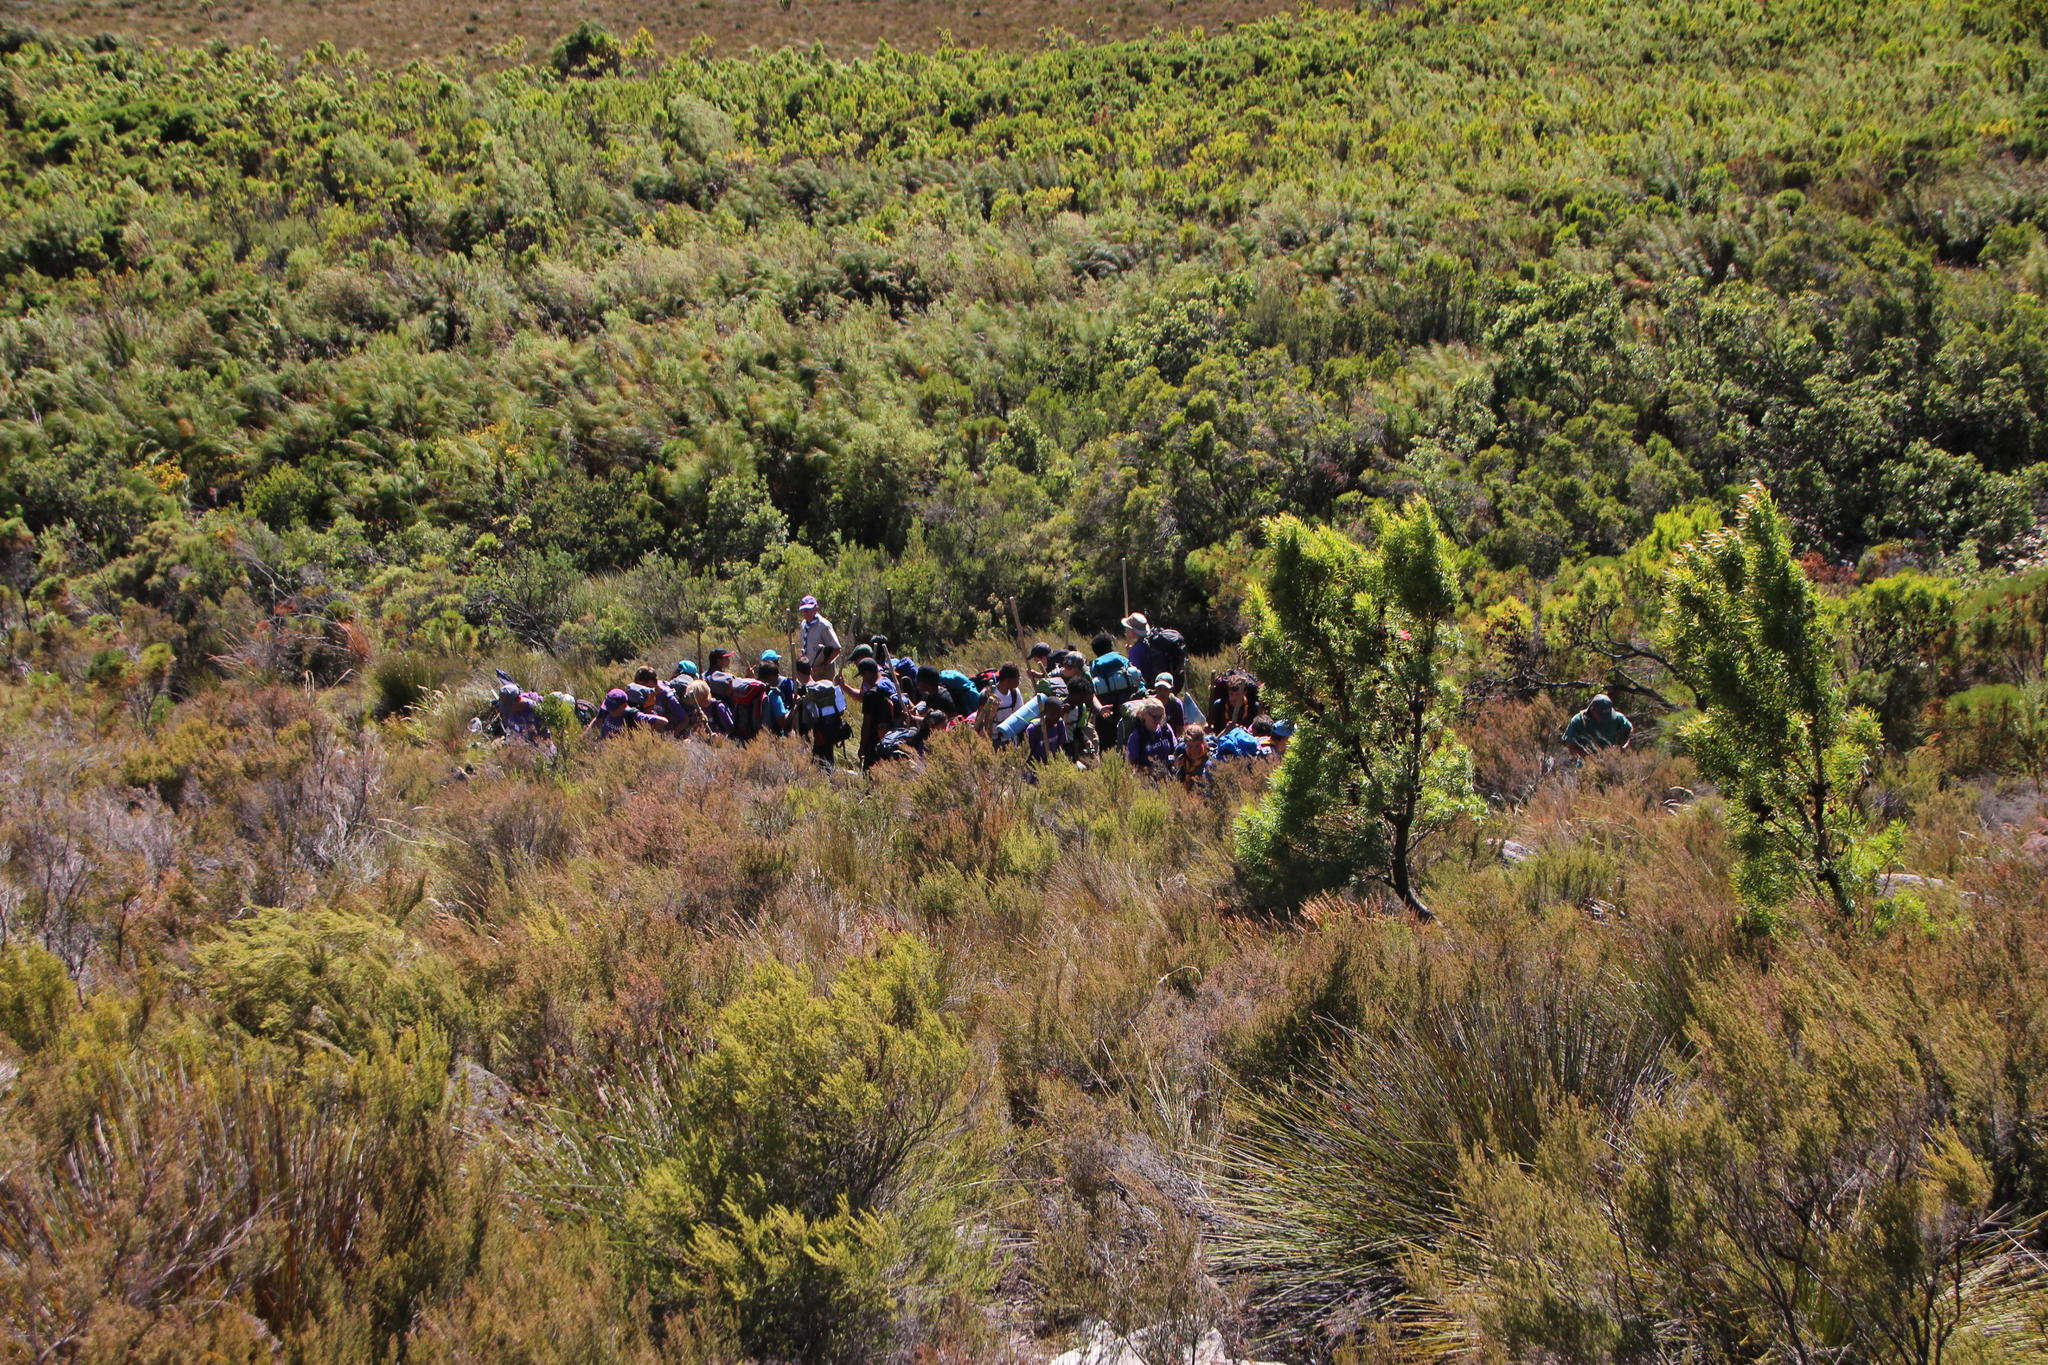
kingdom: Plantae
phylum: Tracheophyta
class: Magnoliopsida
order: Proteales
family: Proteaceae
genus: Leucadendron
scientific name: Leucadendron salicifolium
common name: Common stream conebush
